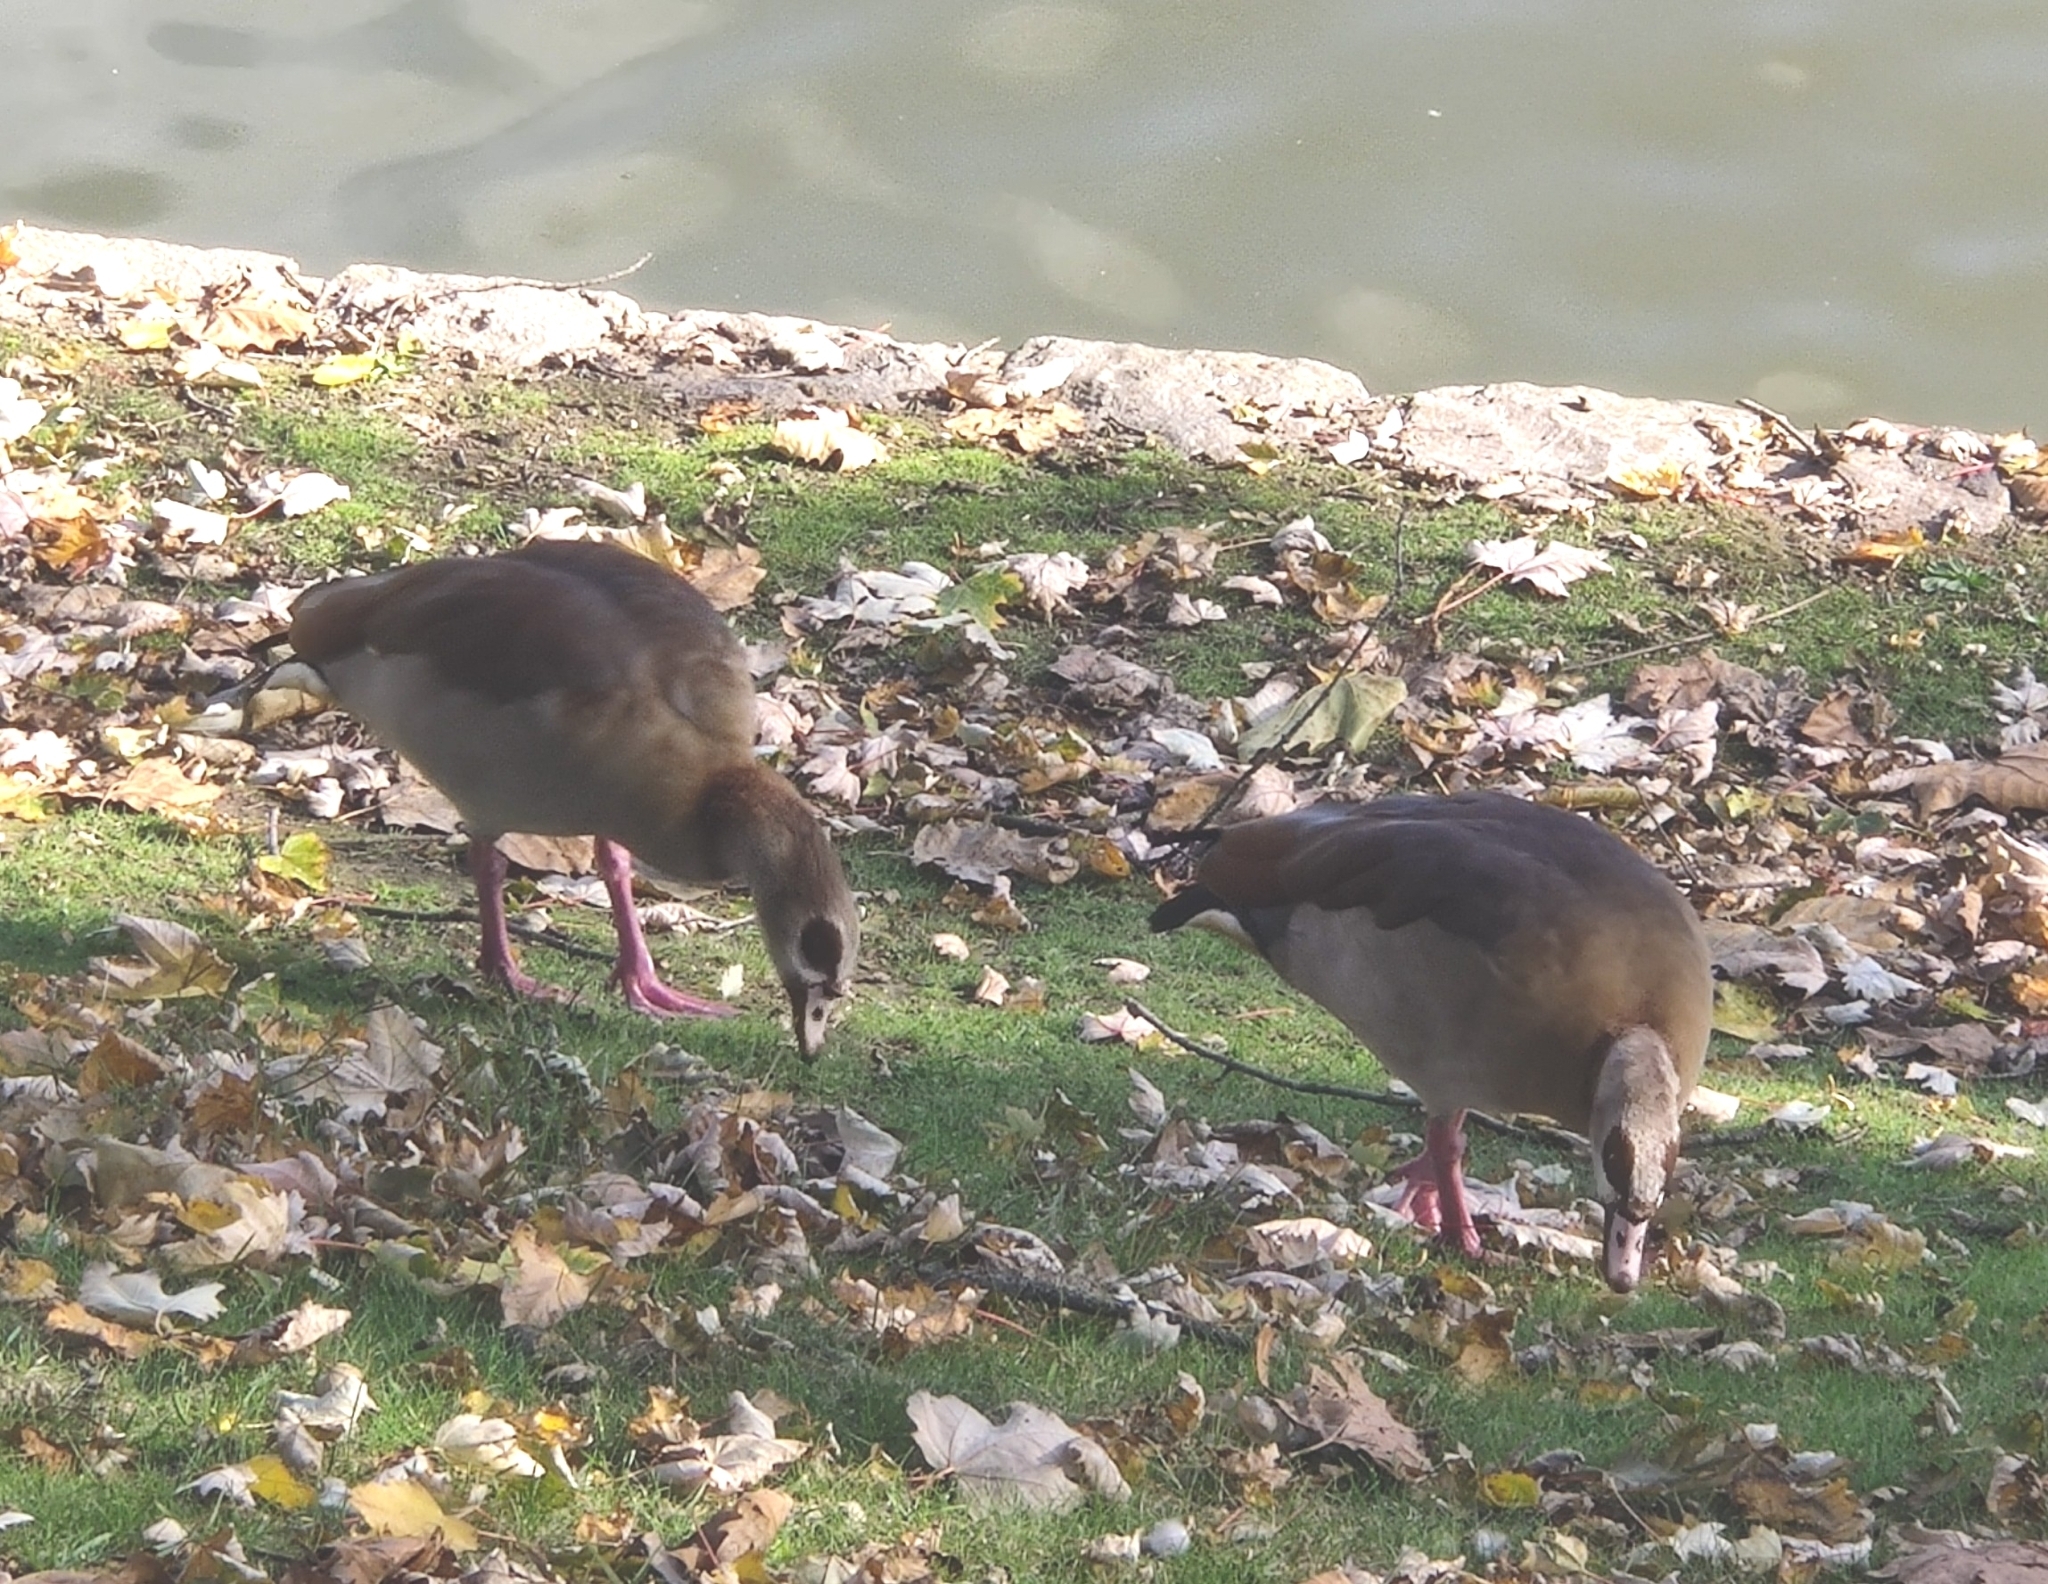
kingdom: Animalia
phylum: Chordata
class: Aves
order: Anseriformes
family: Anatidae
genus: Alopochen
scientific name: Alopochen aegyptiaca
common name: Egyptian goose
